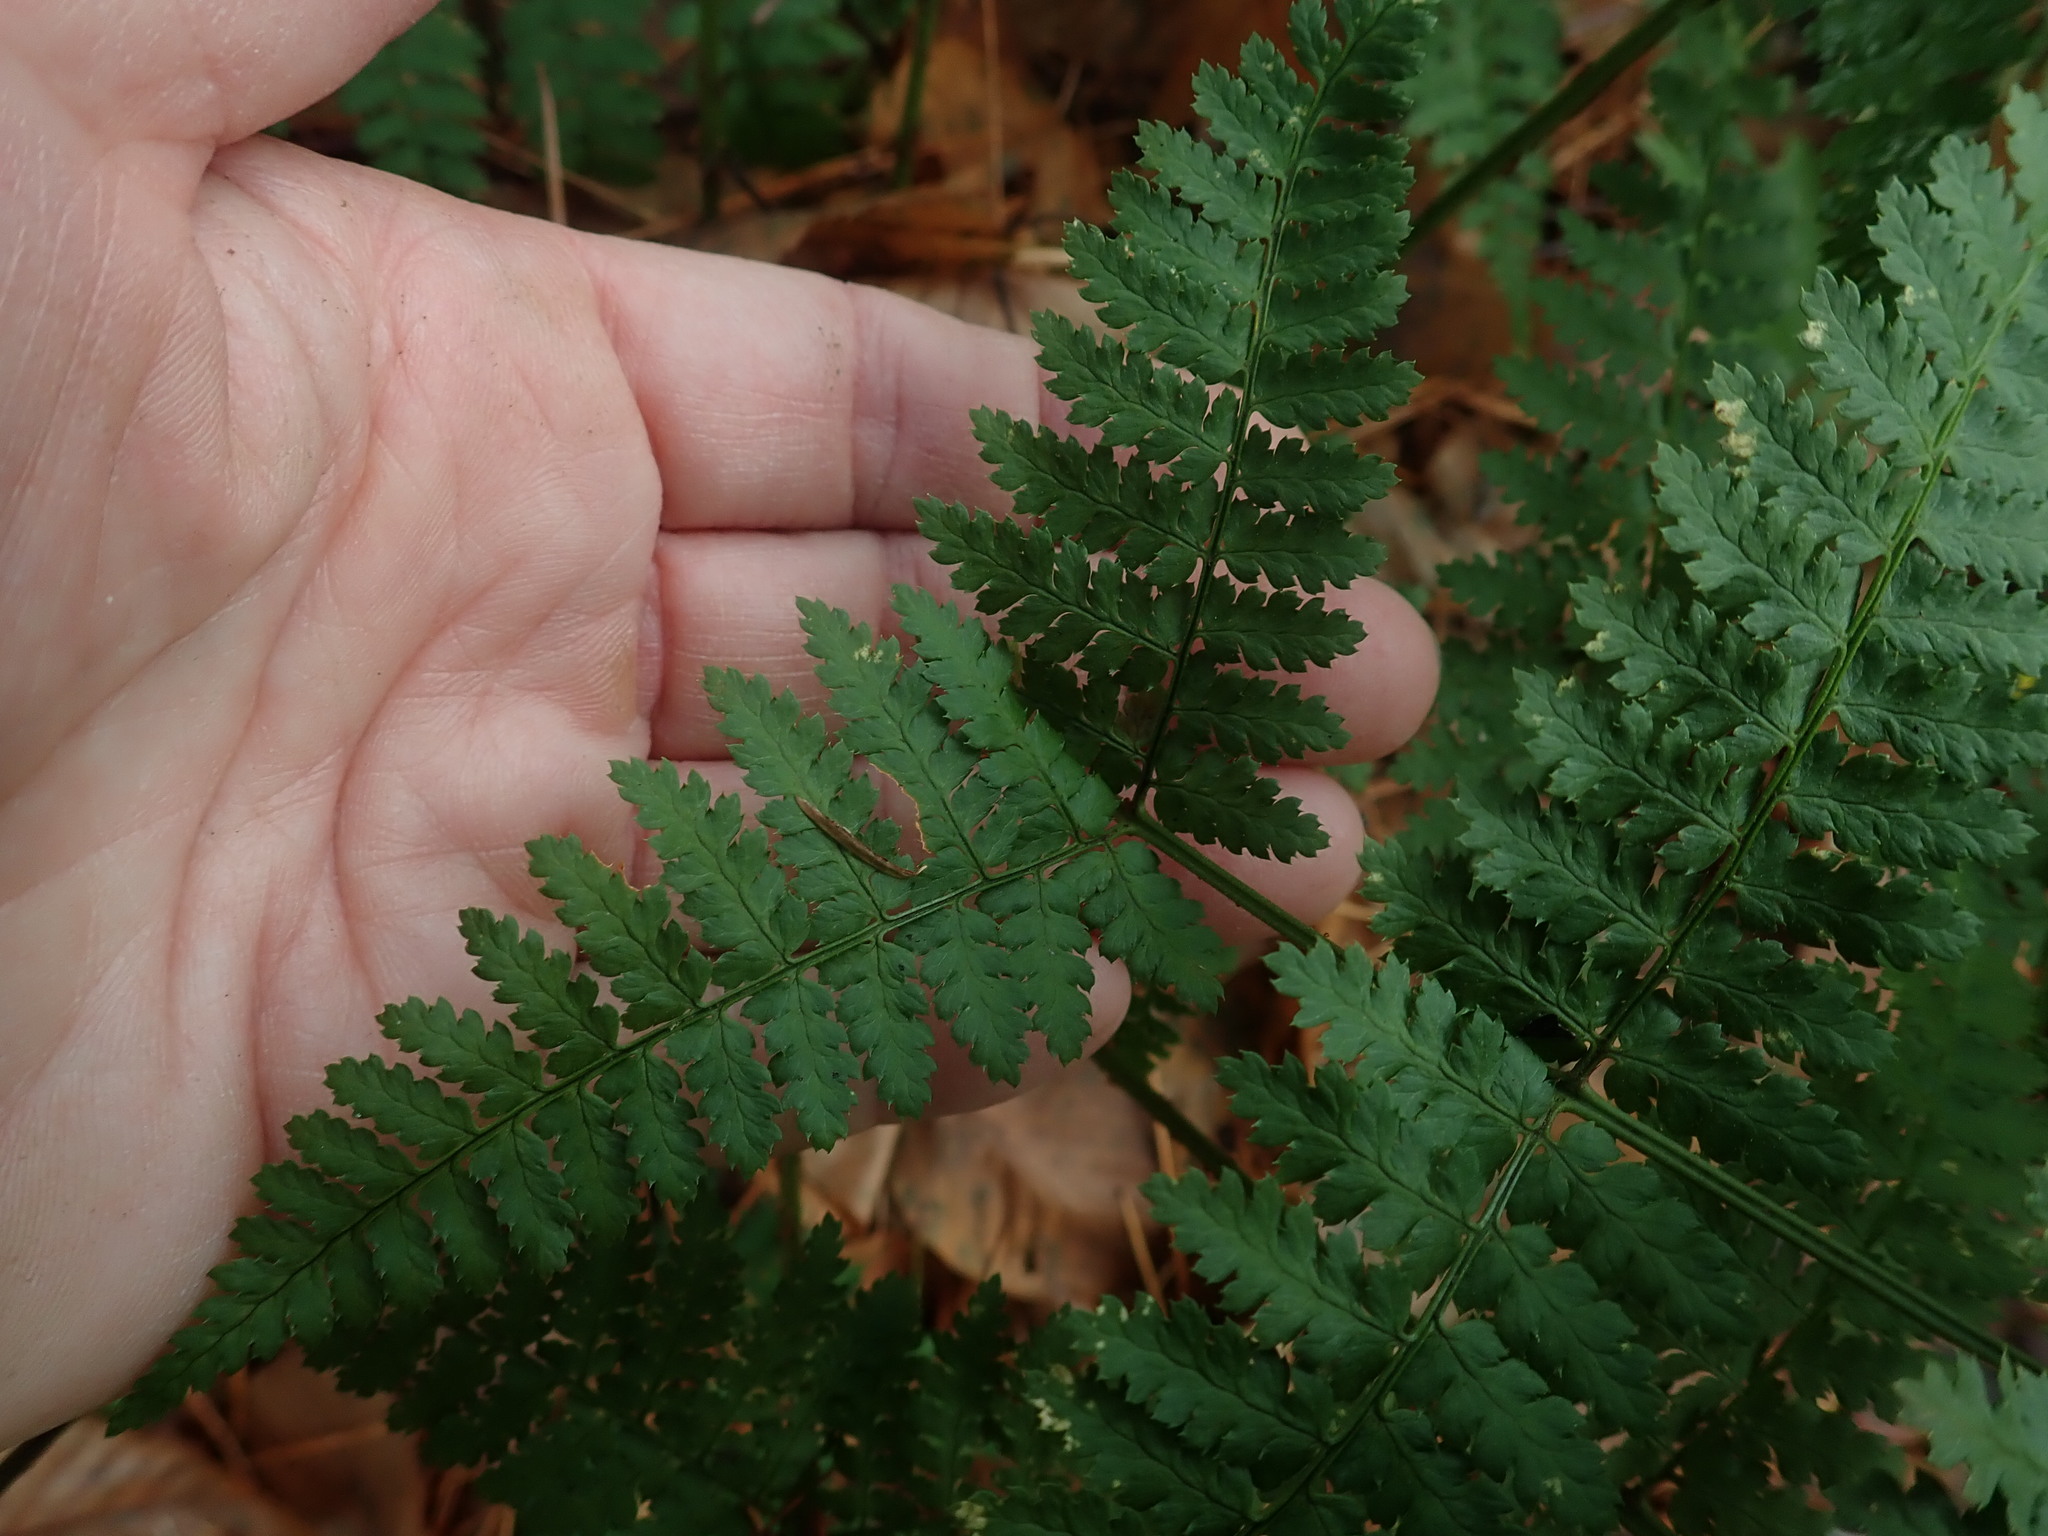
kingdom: Plantae
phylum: Tracheophyta
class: Polypodiopsida
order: Polypodiales
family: Dryopteridaceae
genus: Dryopteris
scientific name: Dryopteris intermedia
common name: Evergreen wood fern
